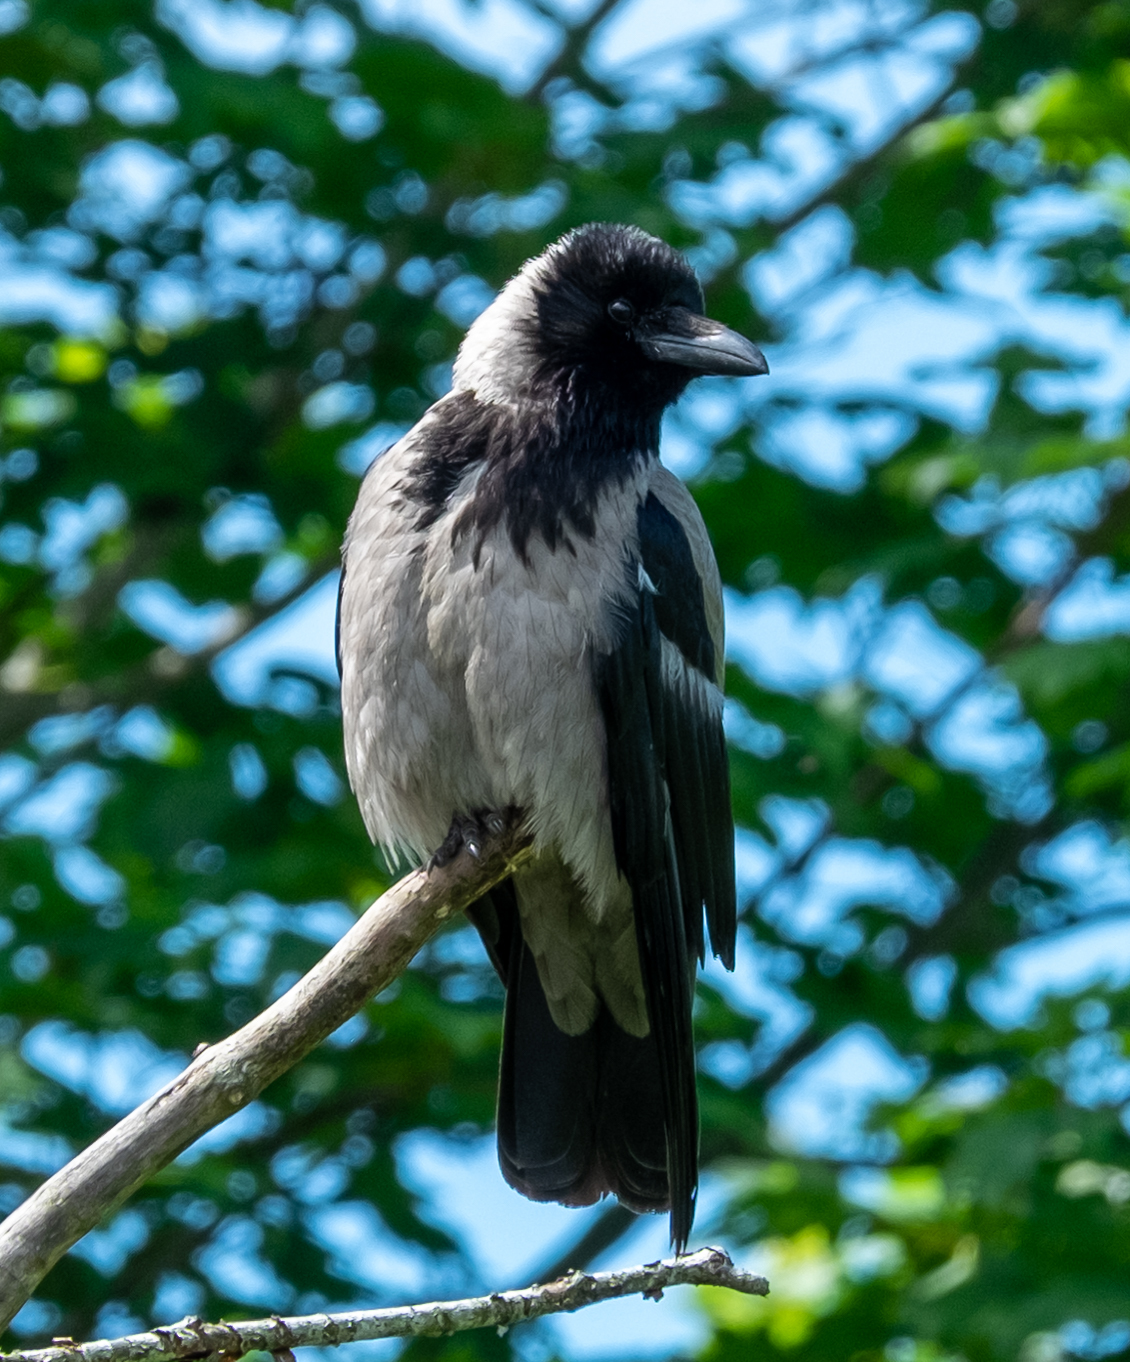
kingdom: Animalia
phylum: Chordata
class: Aves
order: Passeriformes
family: Corvidae
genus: Corvus
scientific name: Corvus cornix
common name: Hooded crow
